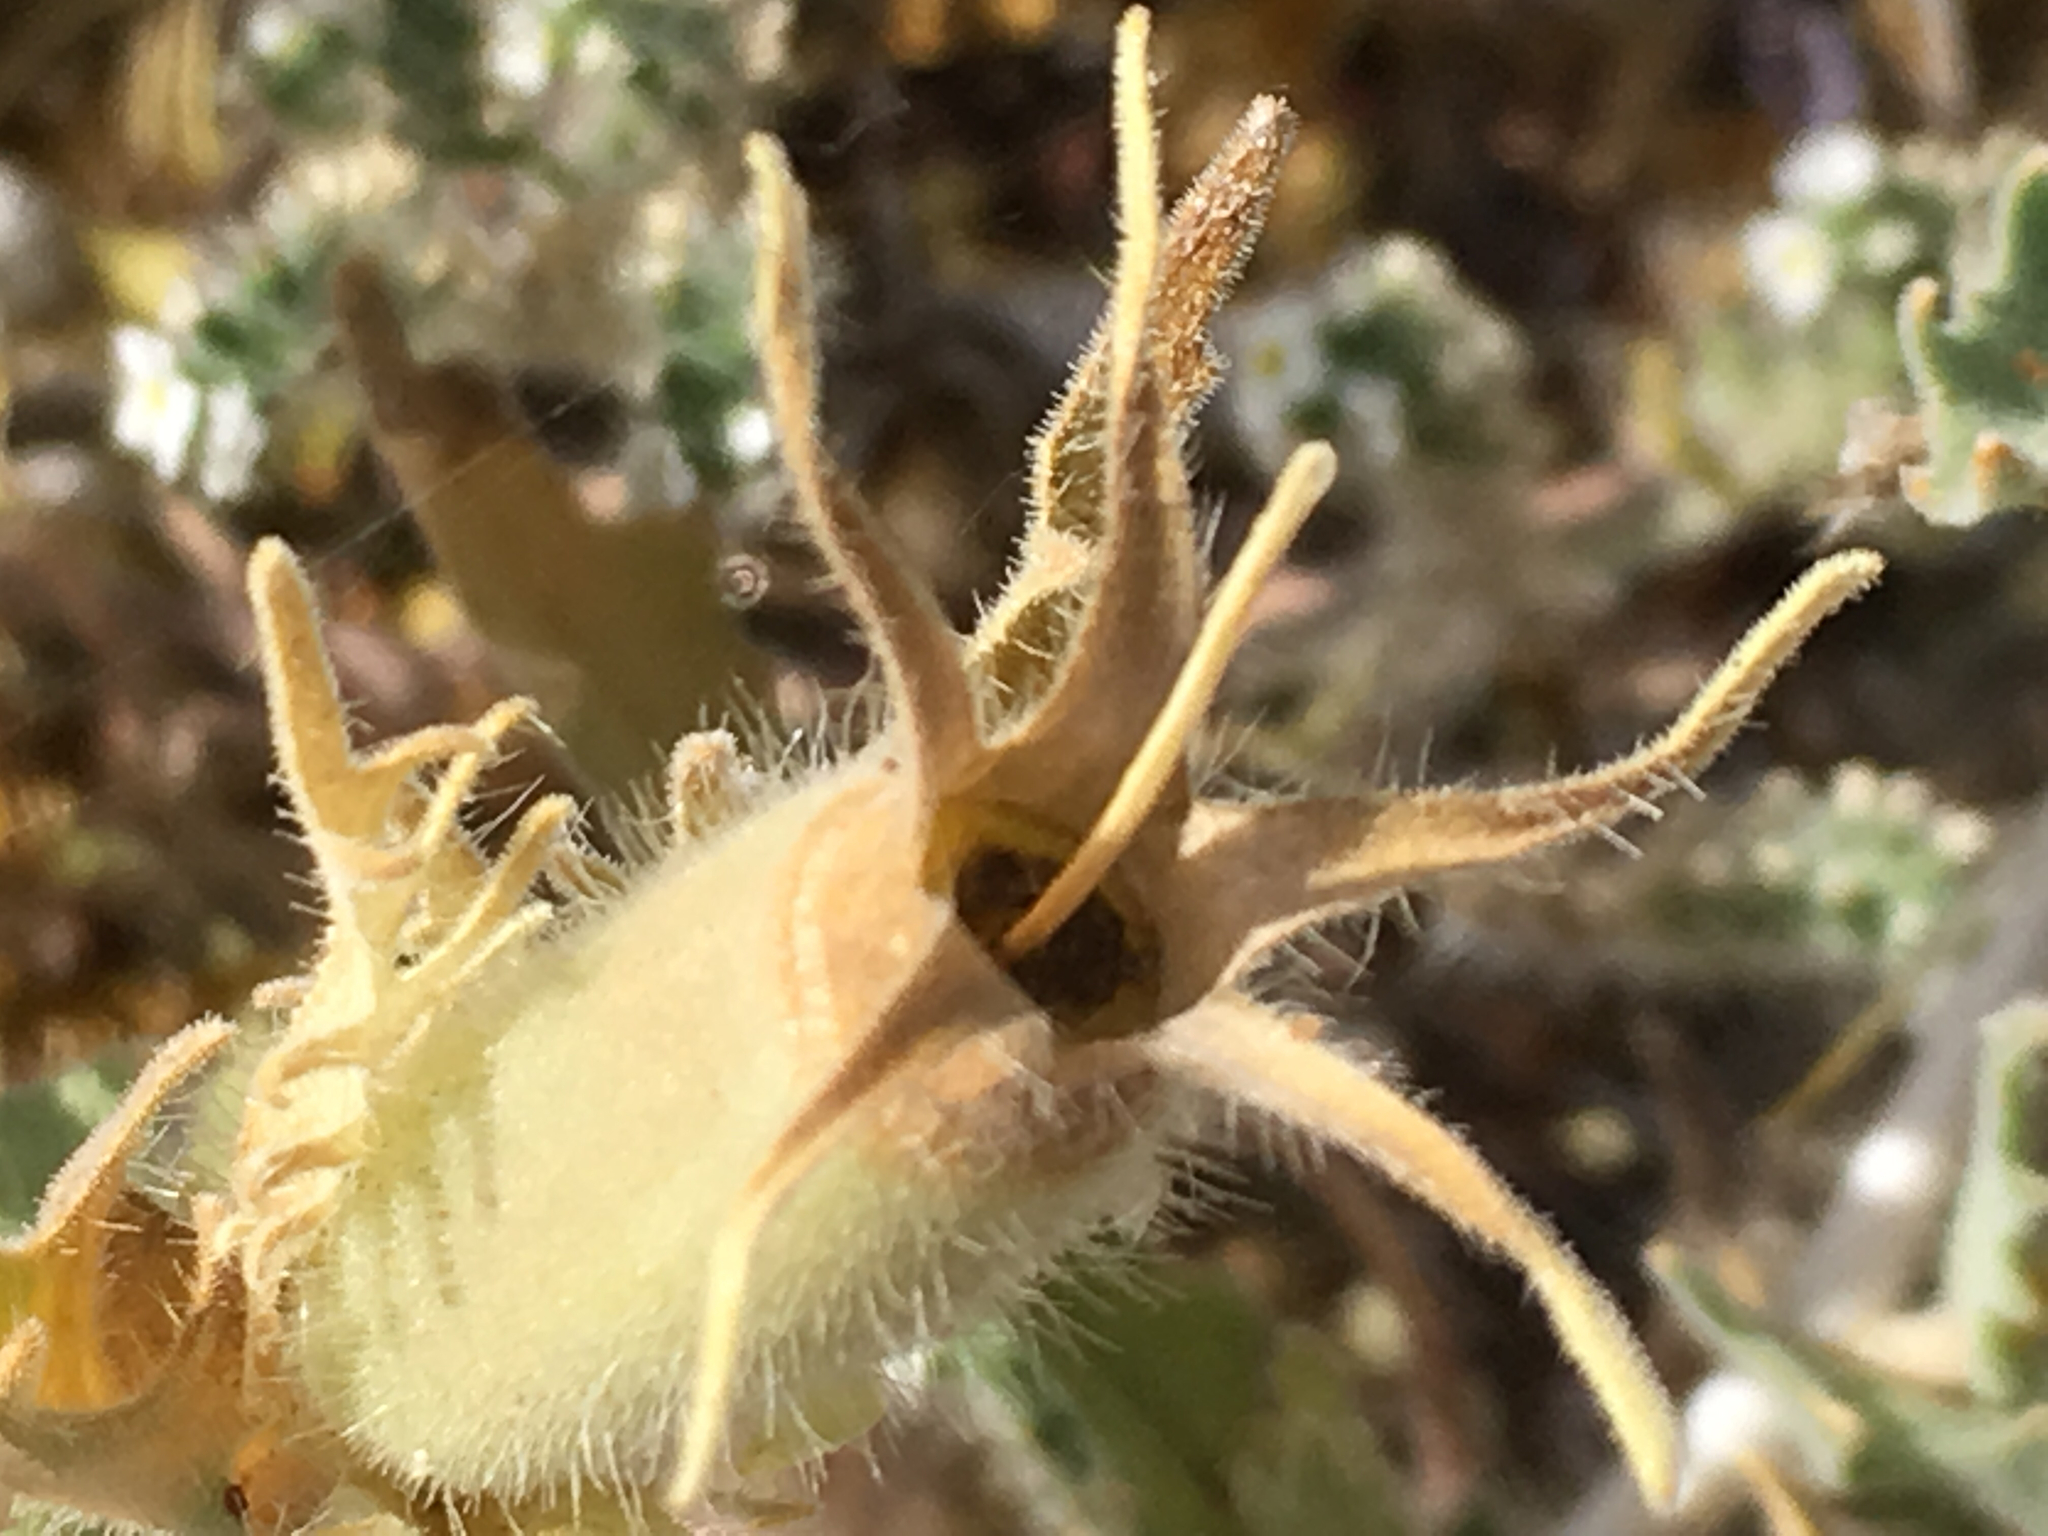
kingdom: Plantae
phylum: Tracheophyta
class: Magnoliopsida
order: Cornales
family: Loasaceae
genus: Mentzelia
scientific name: Mentzelia involucrata
